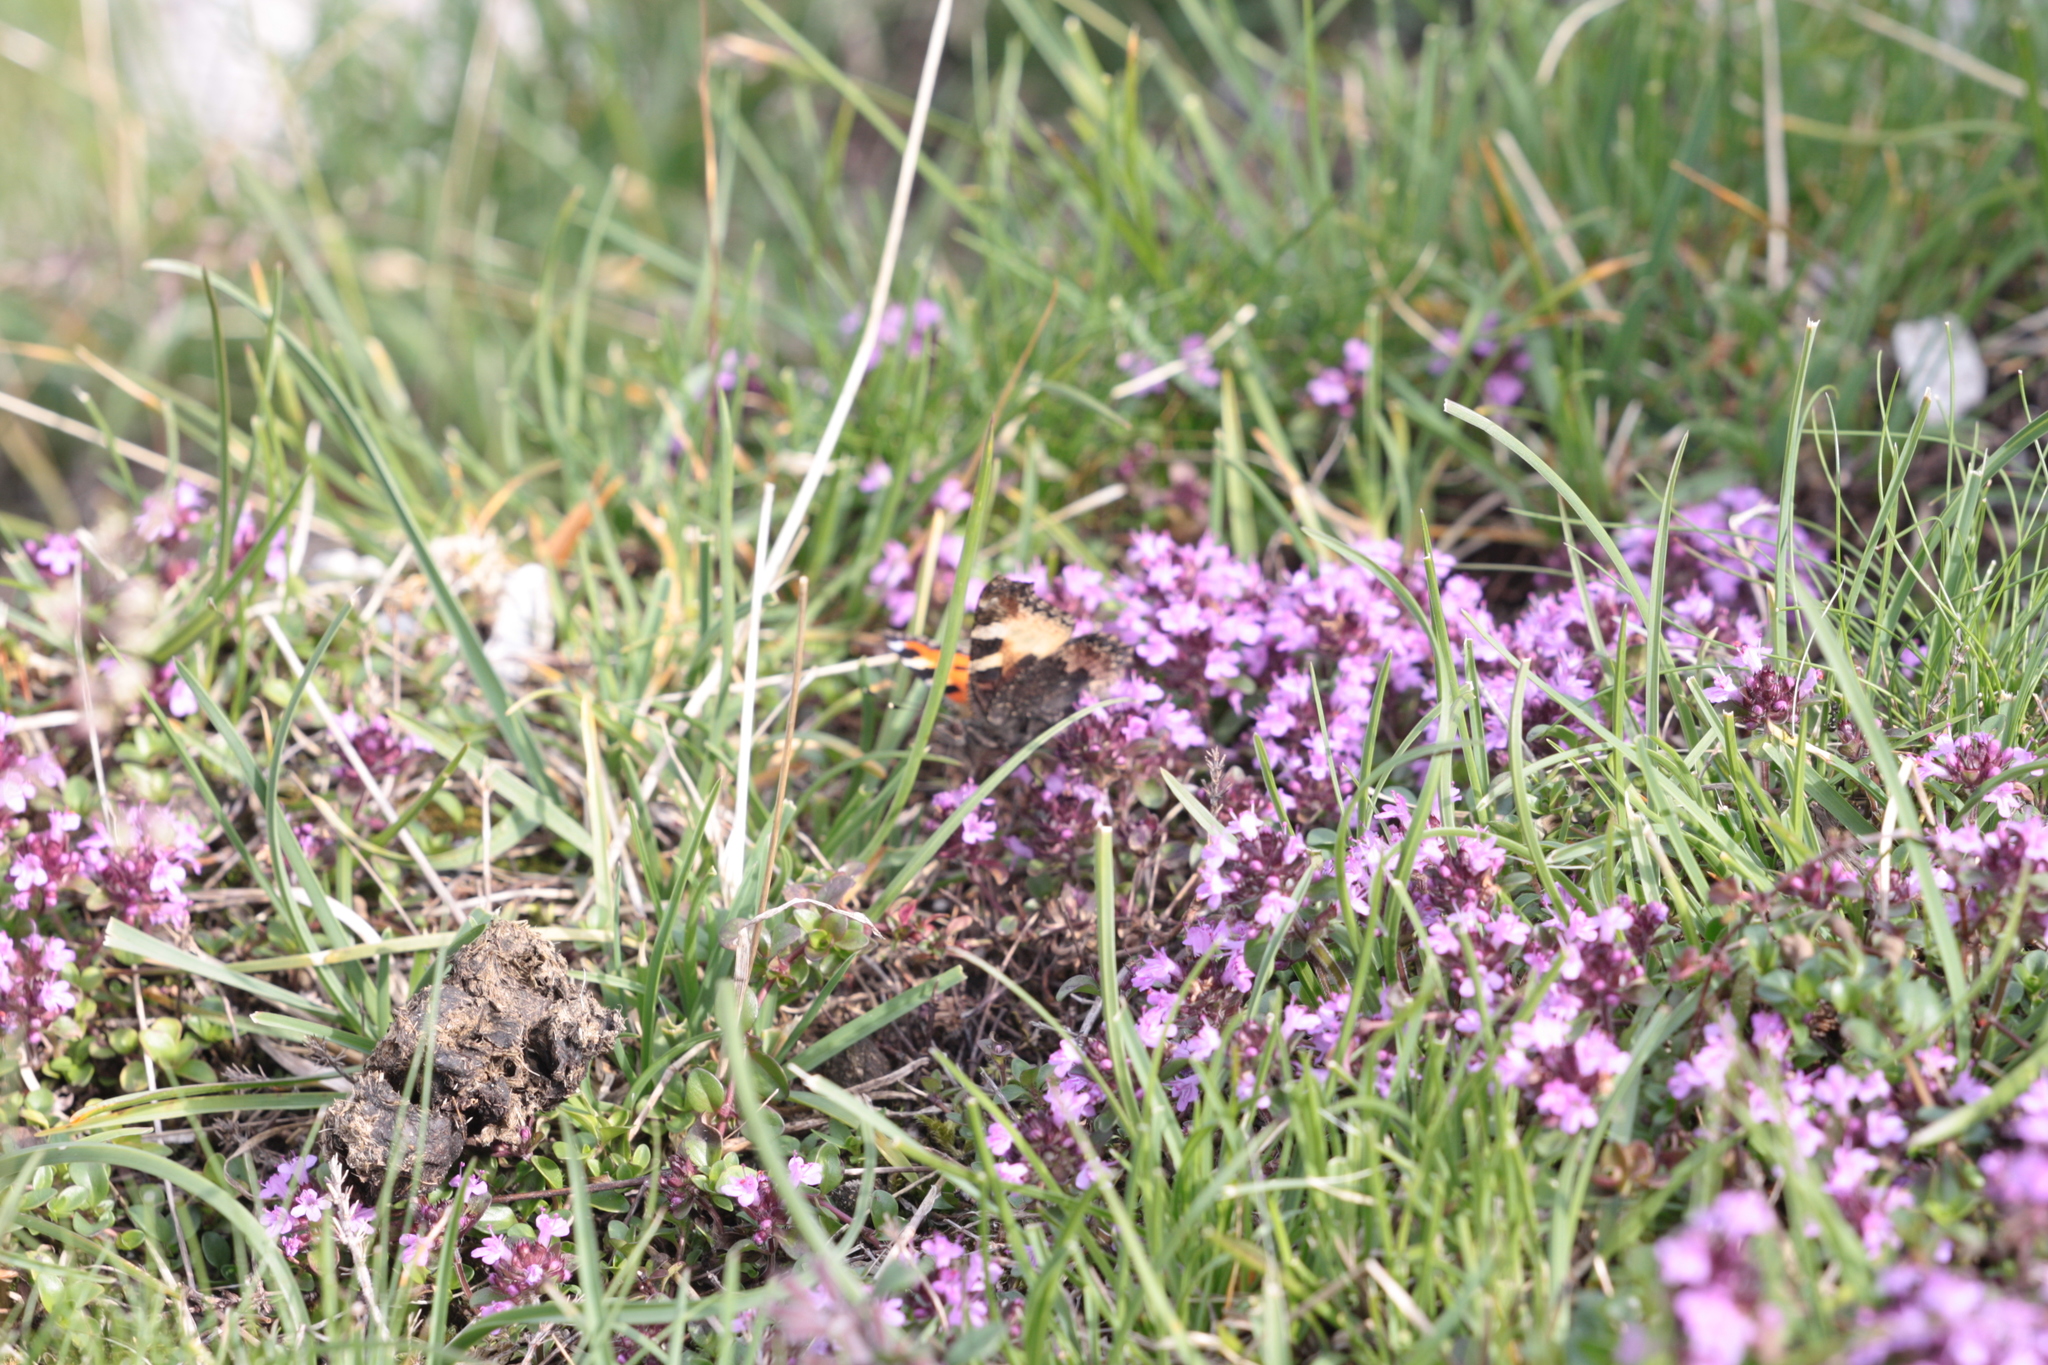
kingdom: Animalia
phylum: Arthropoda
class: Insecta
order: Lepidoptera
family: Nymphalidae
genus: Aglais
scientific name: Aglais urticae
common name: Small tortoiseshell
